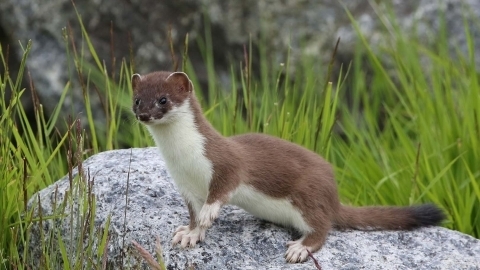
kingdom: Animalia
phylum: Chordata
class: Mammalia
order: Carnivora
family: Mustelidae
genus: Mustela
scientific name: Mustela erminea
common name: Stoat
